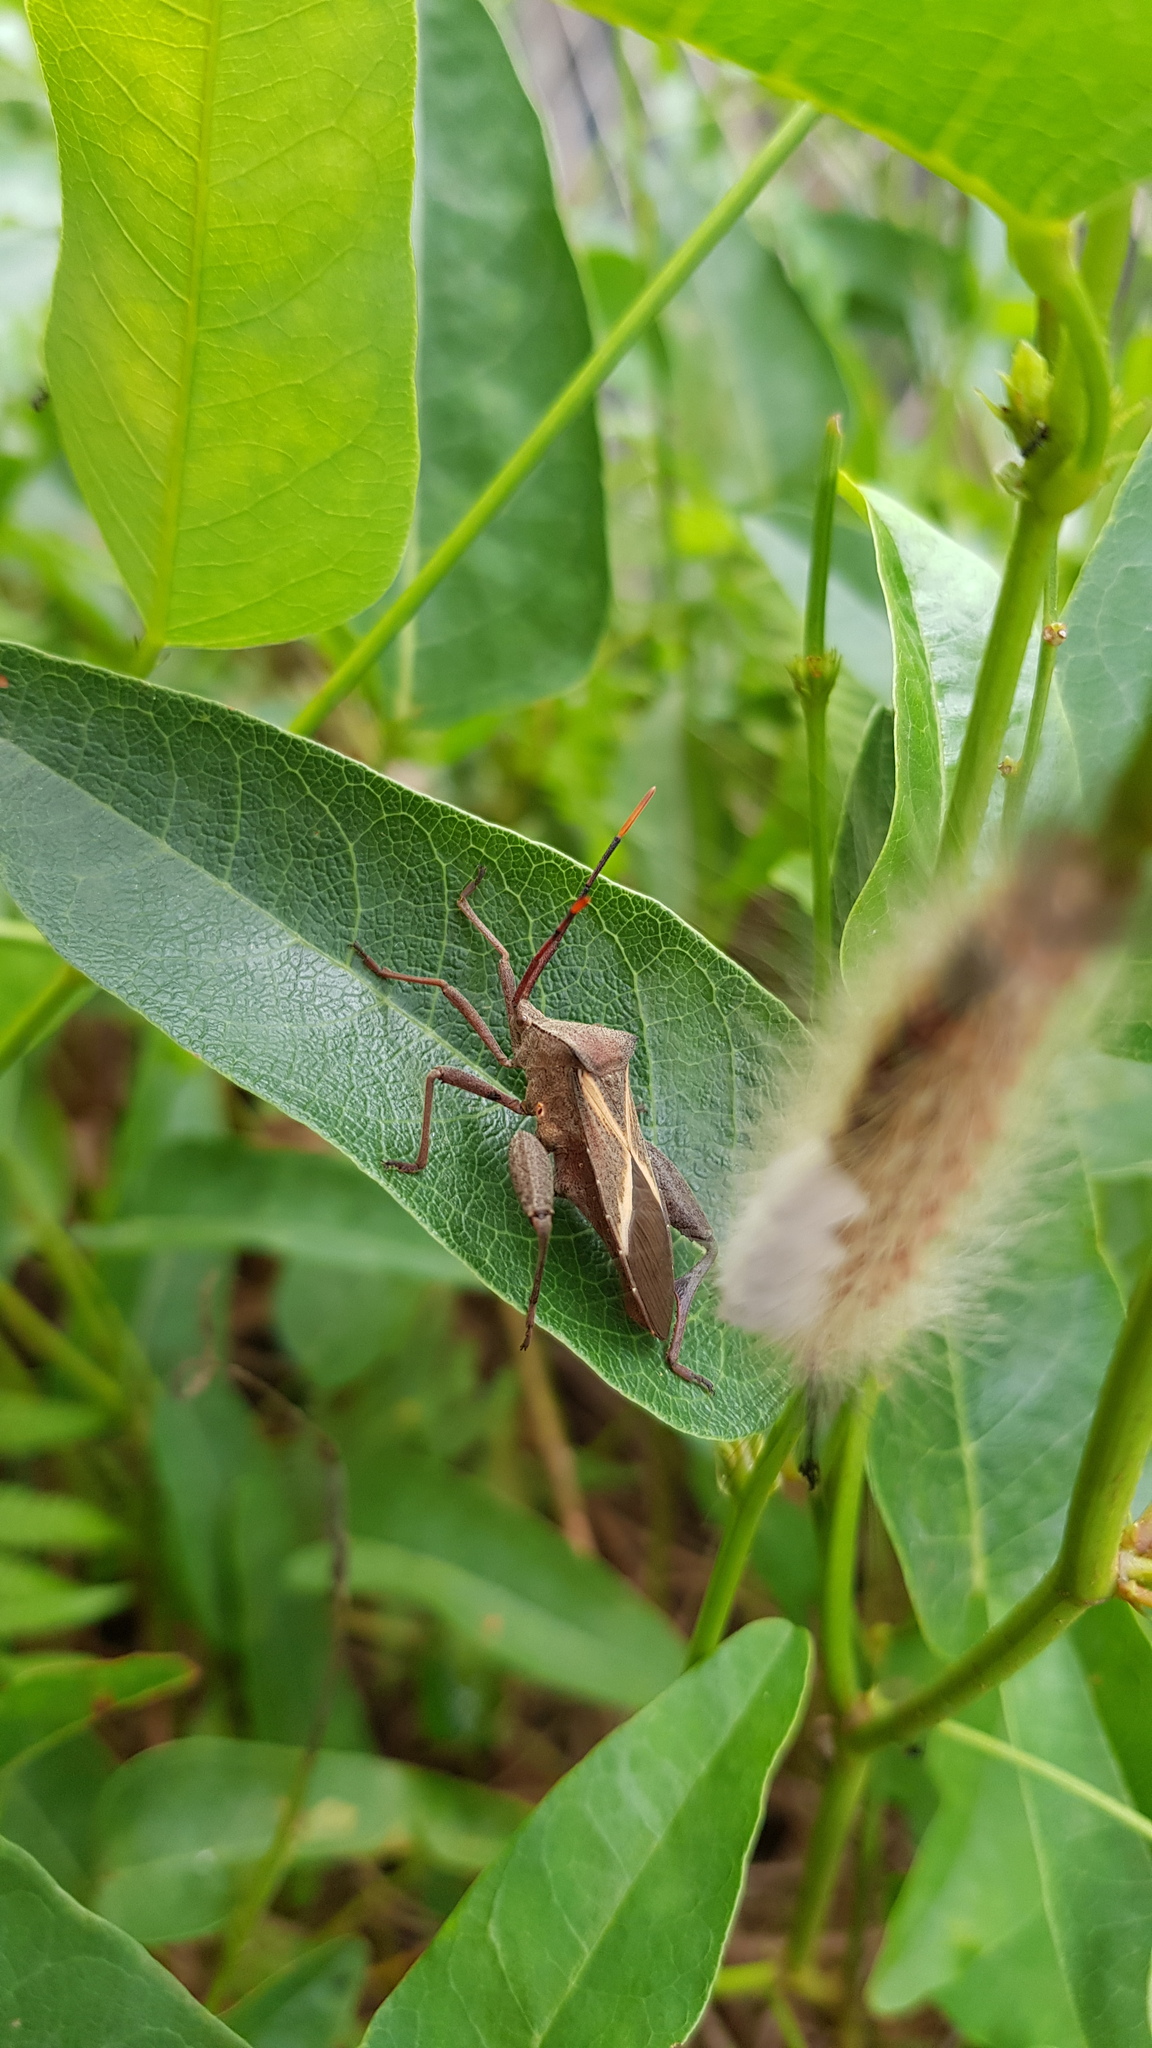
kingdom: Animalia
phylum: Arthropoda
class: Insecta
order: Hemiptera
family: Coreidae
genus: Mictis
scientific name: Mictis profana
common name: Crusader bug
